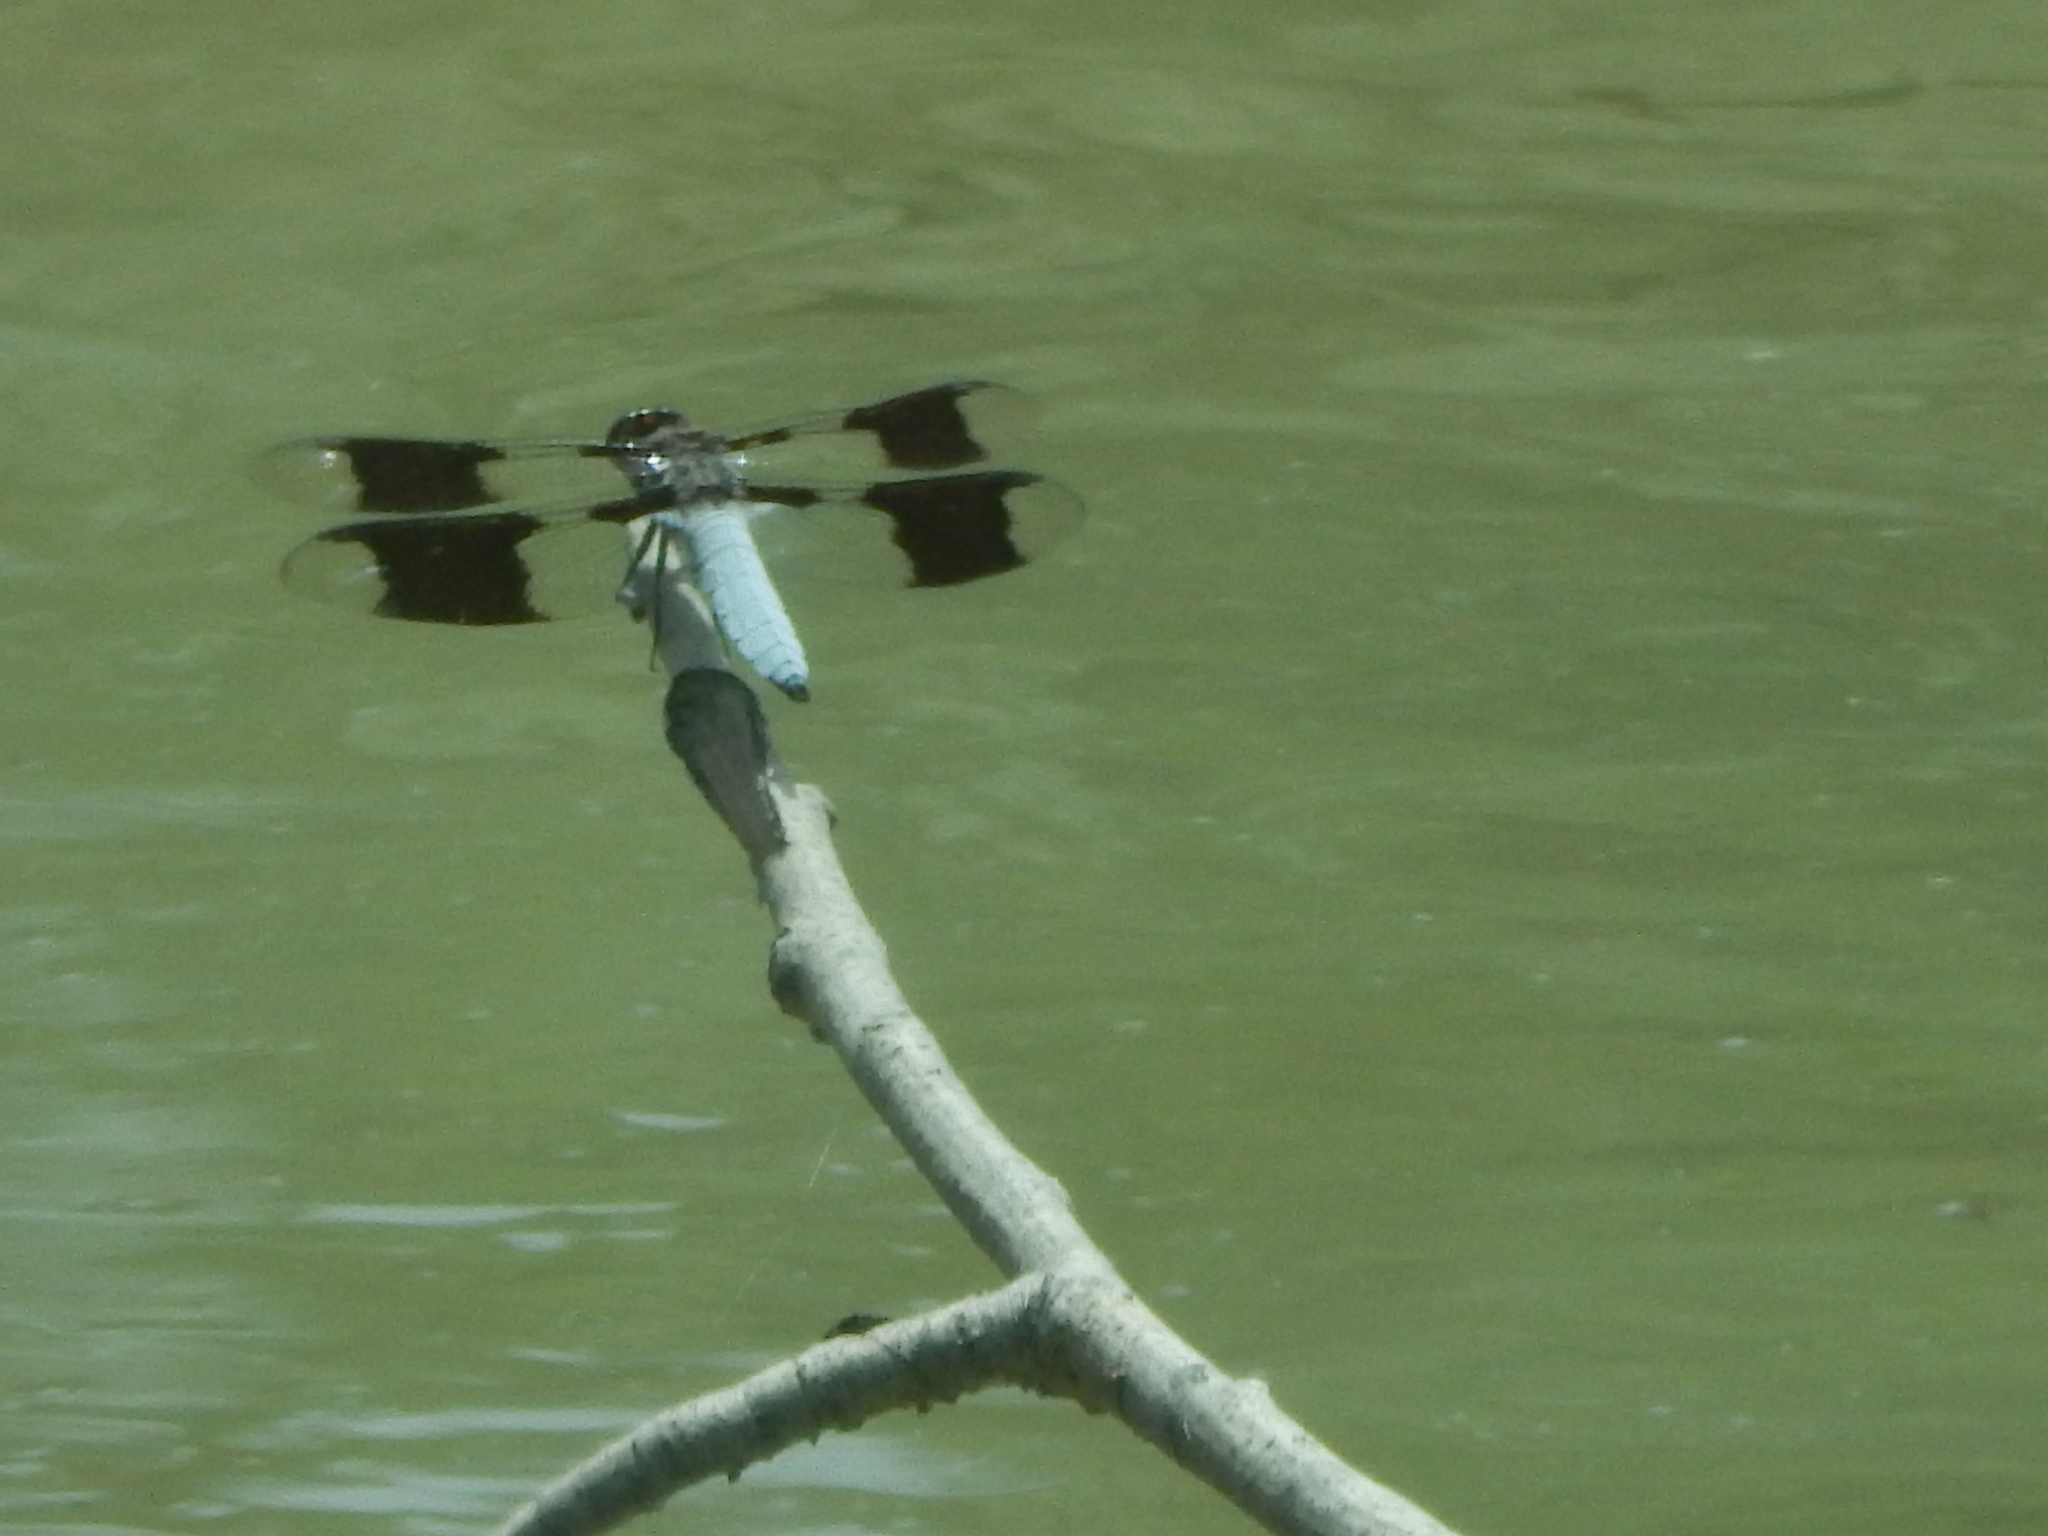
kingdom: Animalia
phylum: Arthropoda
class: Insecta
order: Odonata
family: Libellulidae
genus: Plathemis
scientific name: Plathemis lydia
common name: Common whitetail
